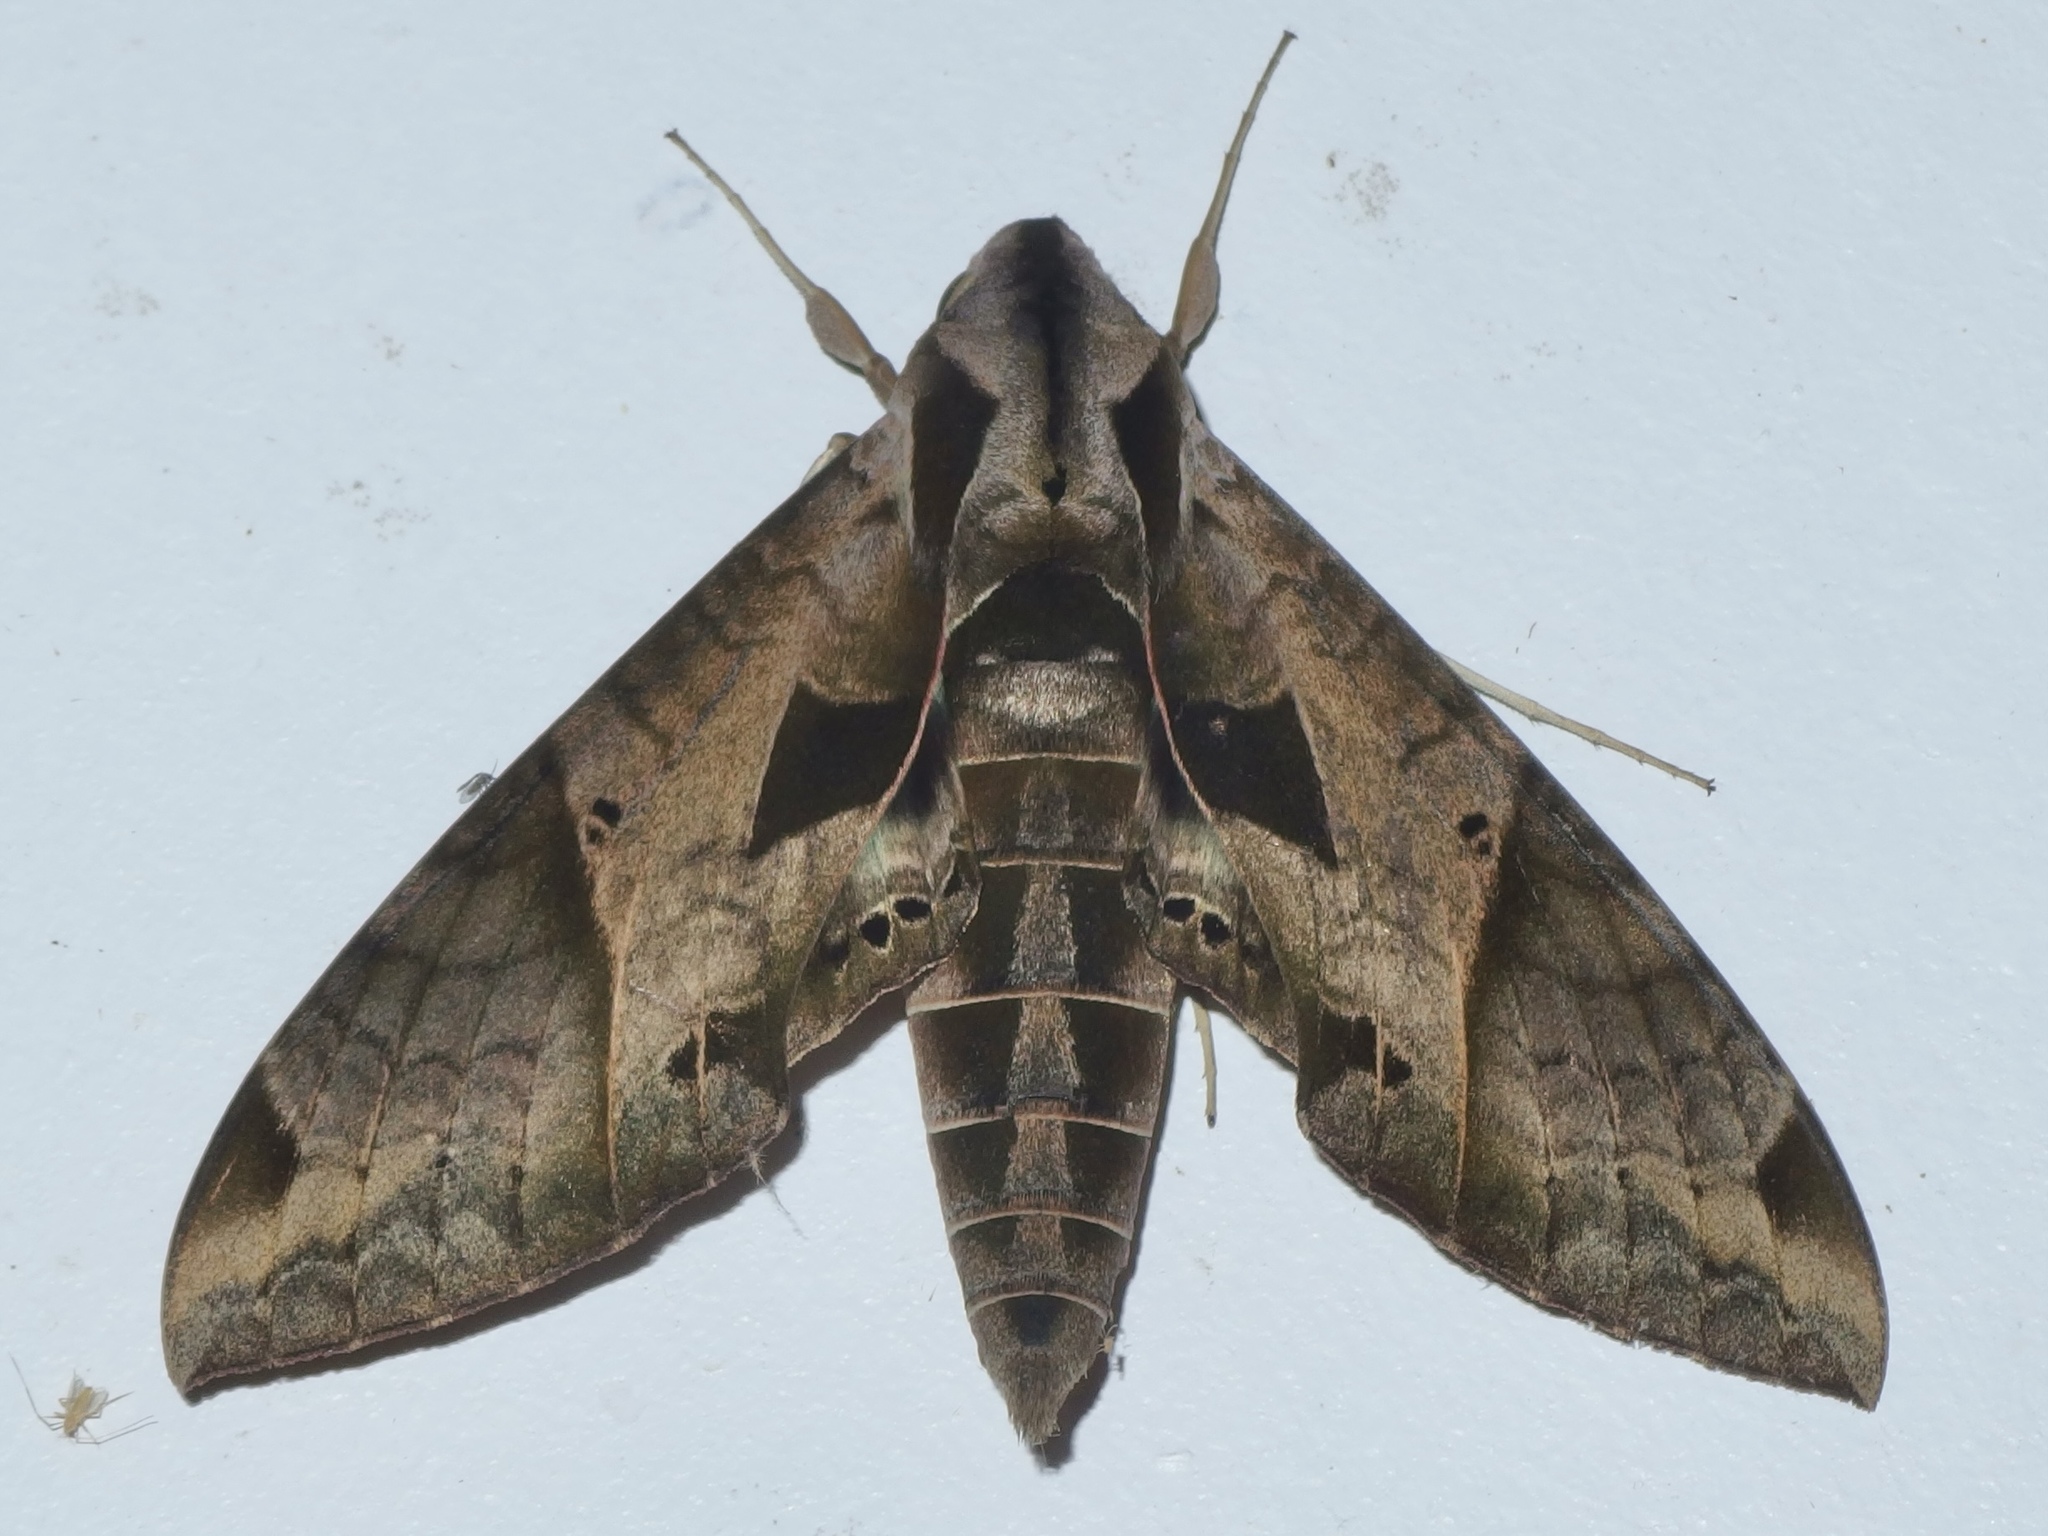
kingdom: Animalia
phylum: Arthropoda
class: Insecta
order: Lepidoptera
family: Sphingidae
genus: Eumorpha
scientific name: Eumorpha satellitia
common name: Satellite sphinx
